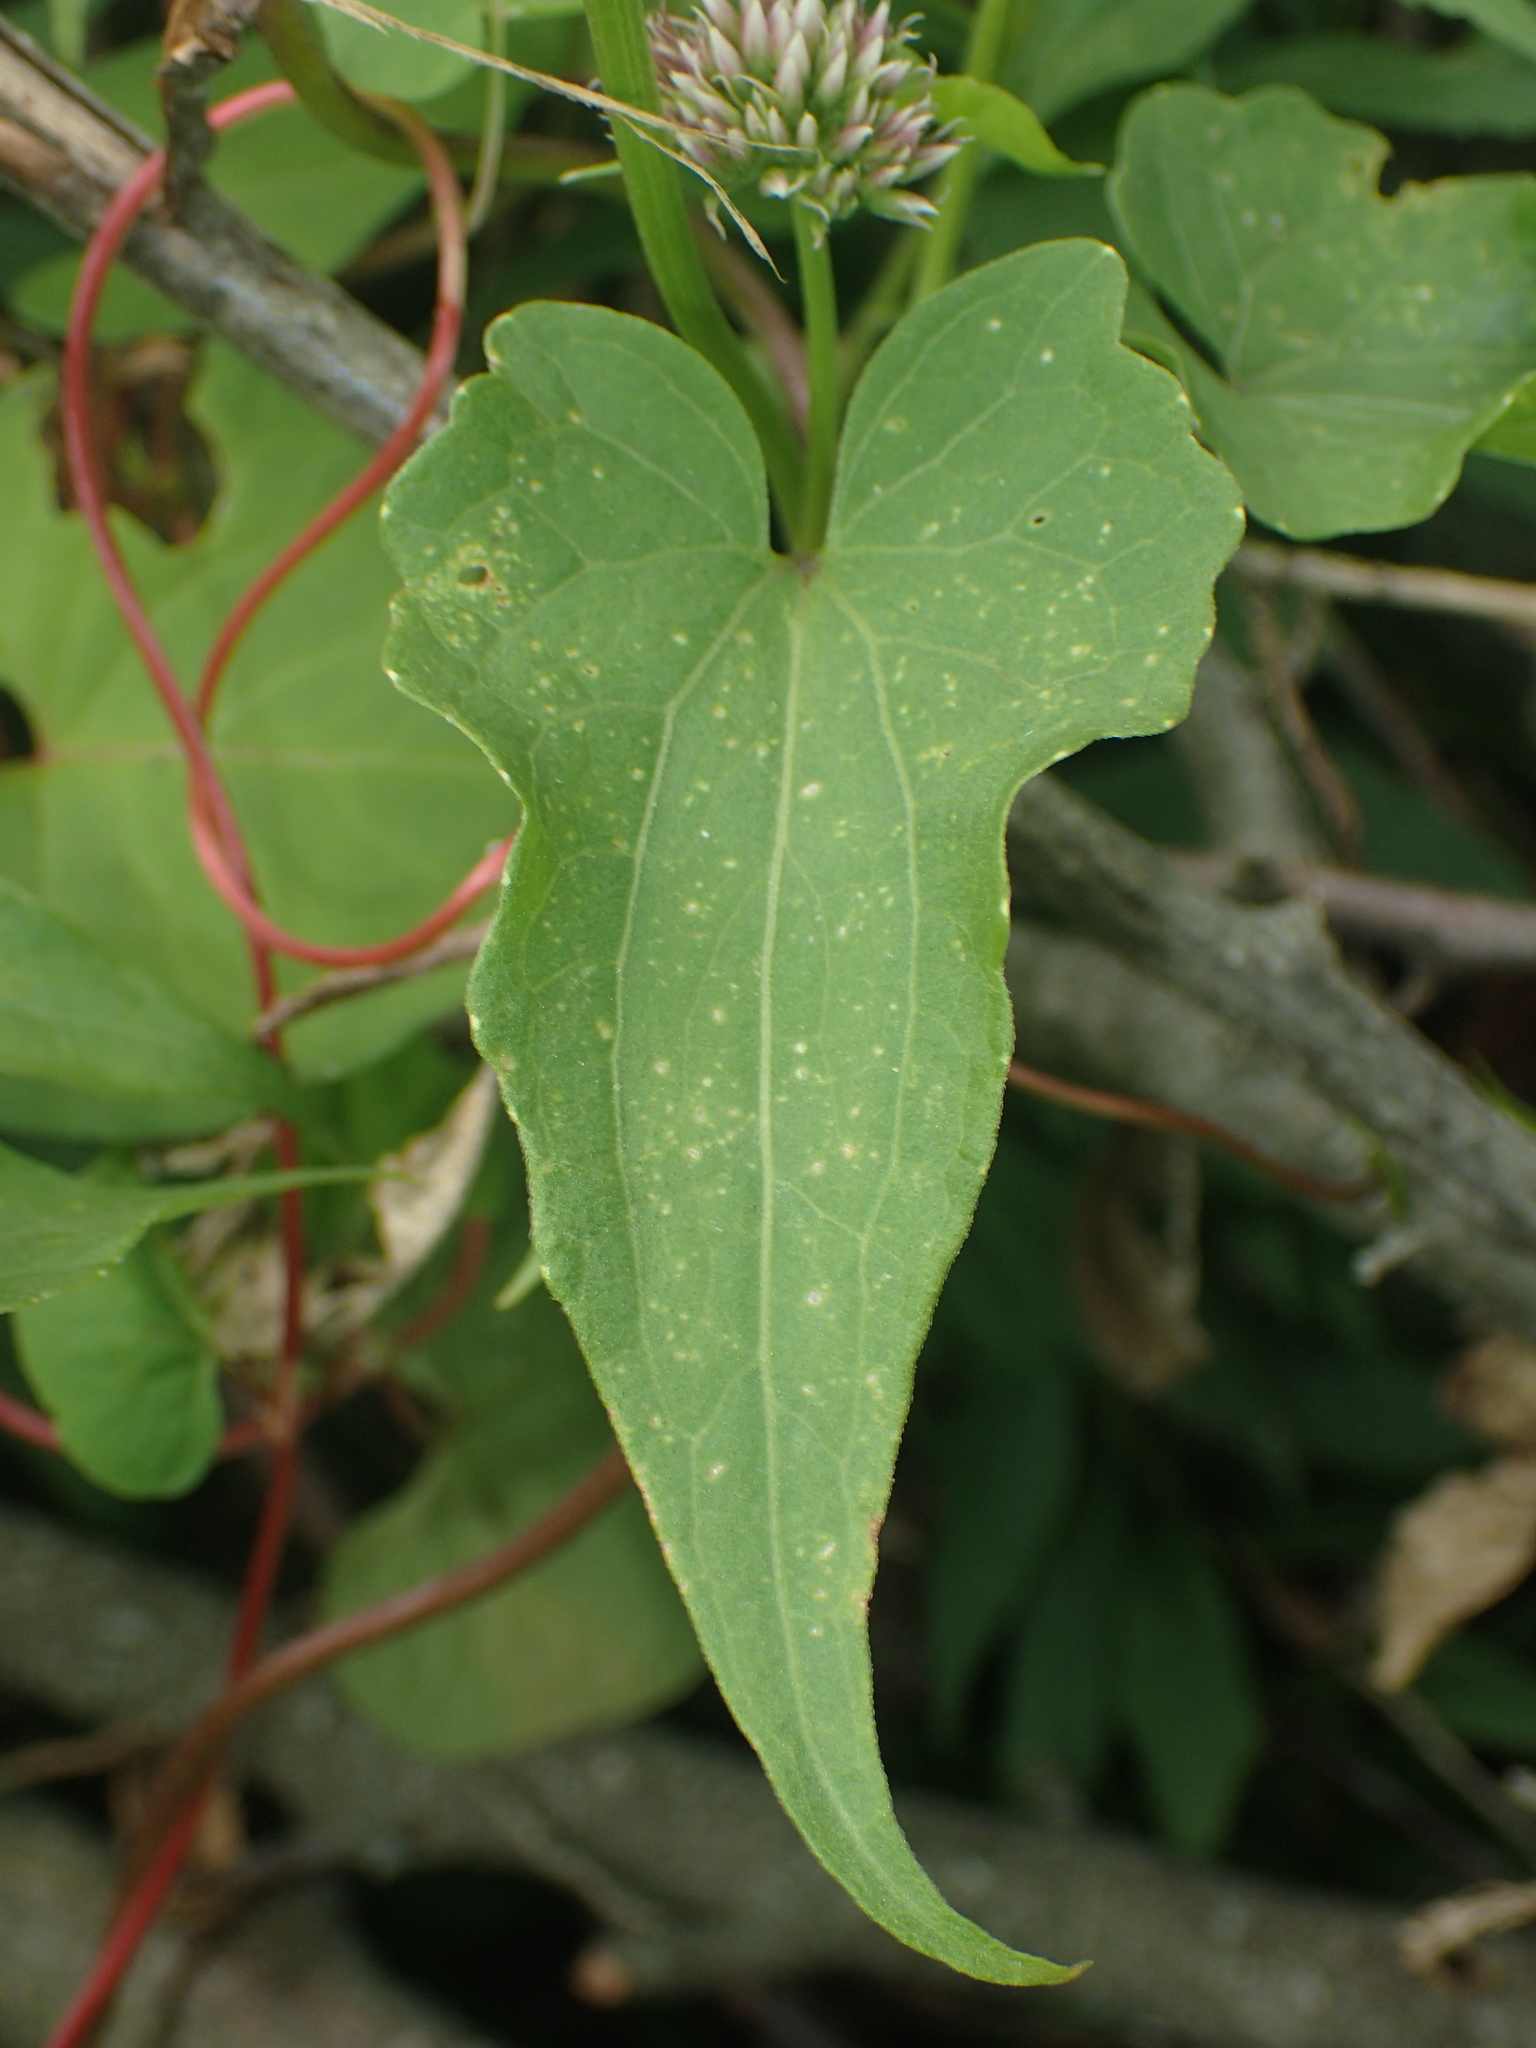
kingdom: Plantae
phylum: Tracheophyta
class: Magnoliopsida
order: Asterales
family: Asteraceae
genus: Mikania
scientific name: Mikania scandens
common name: Climbing hempvine
